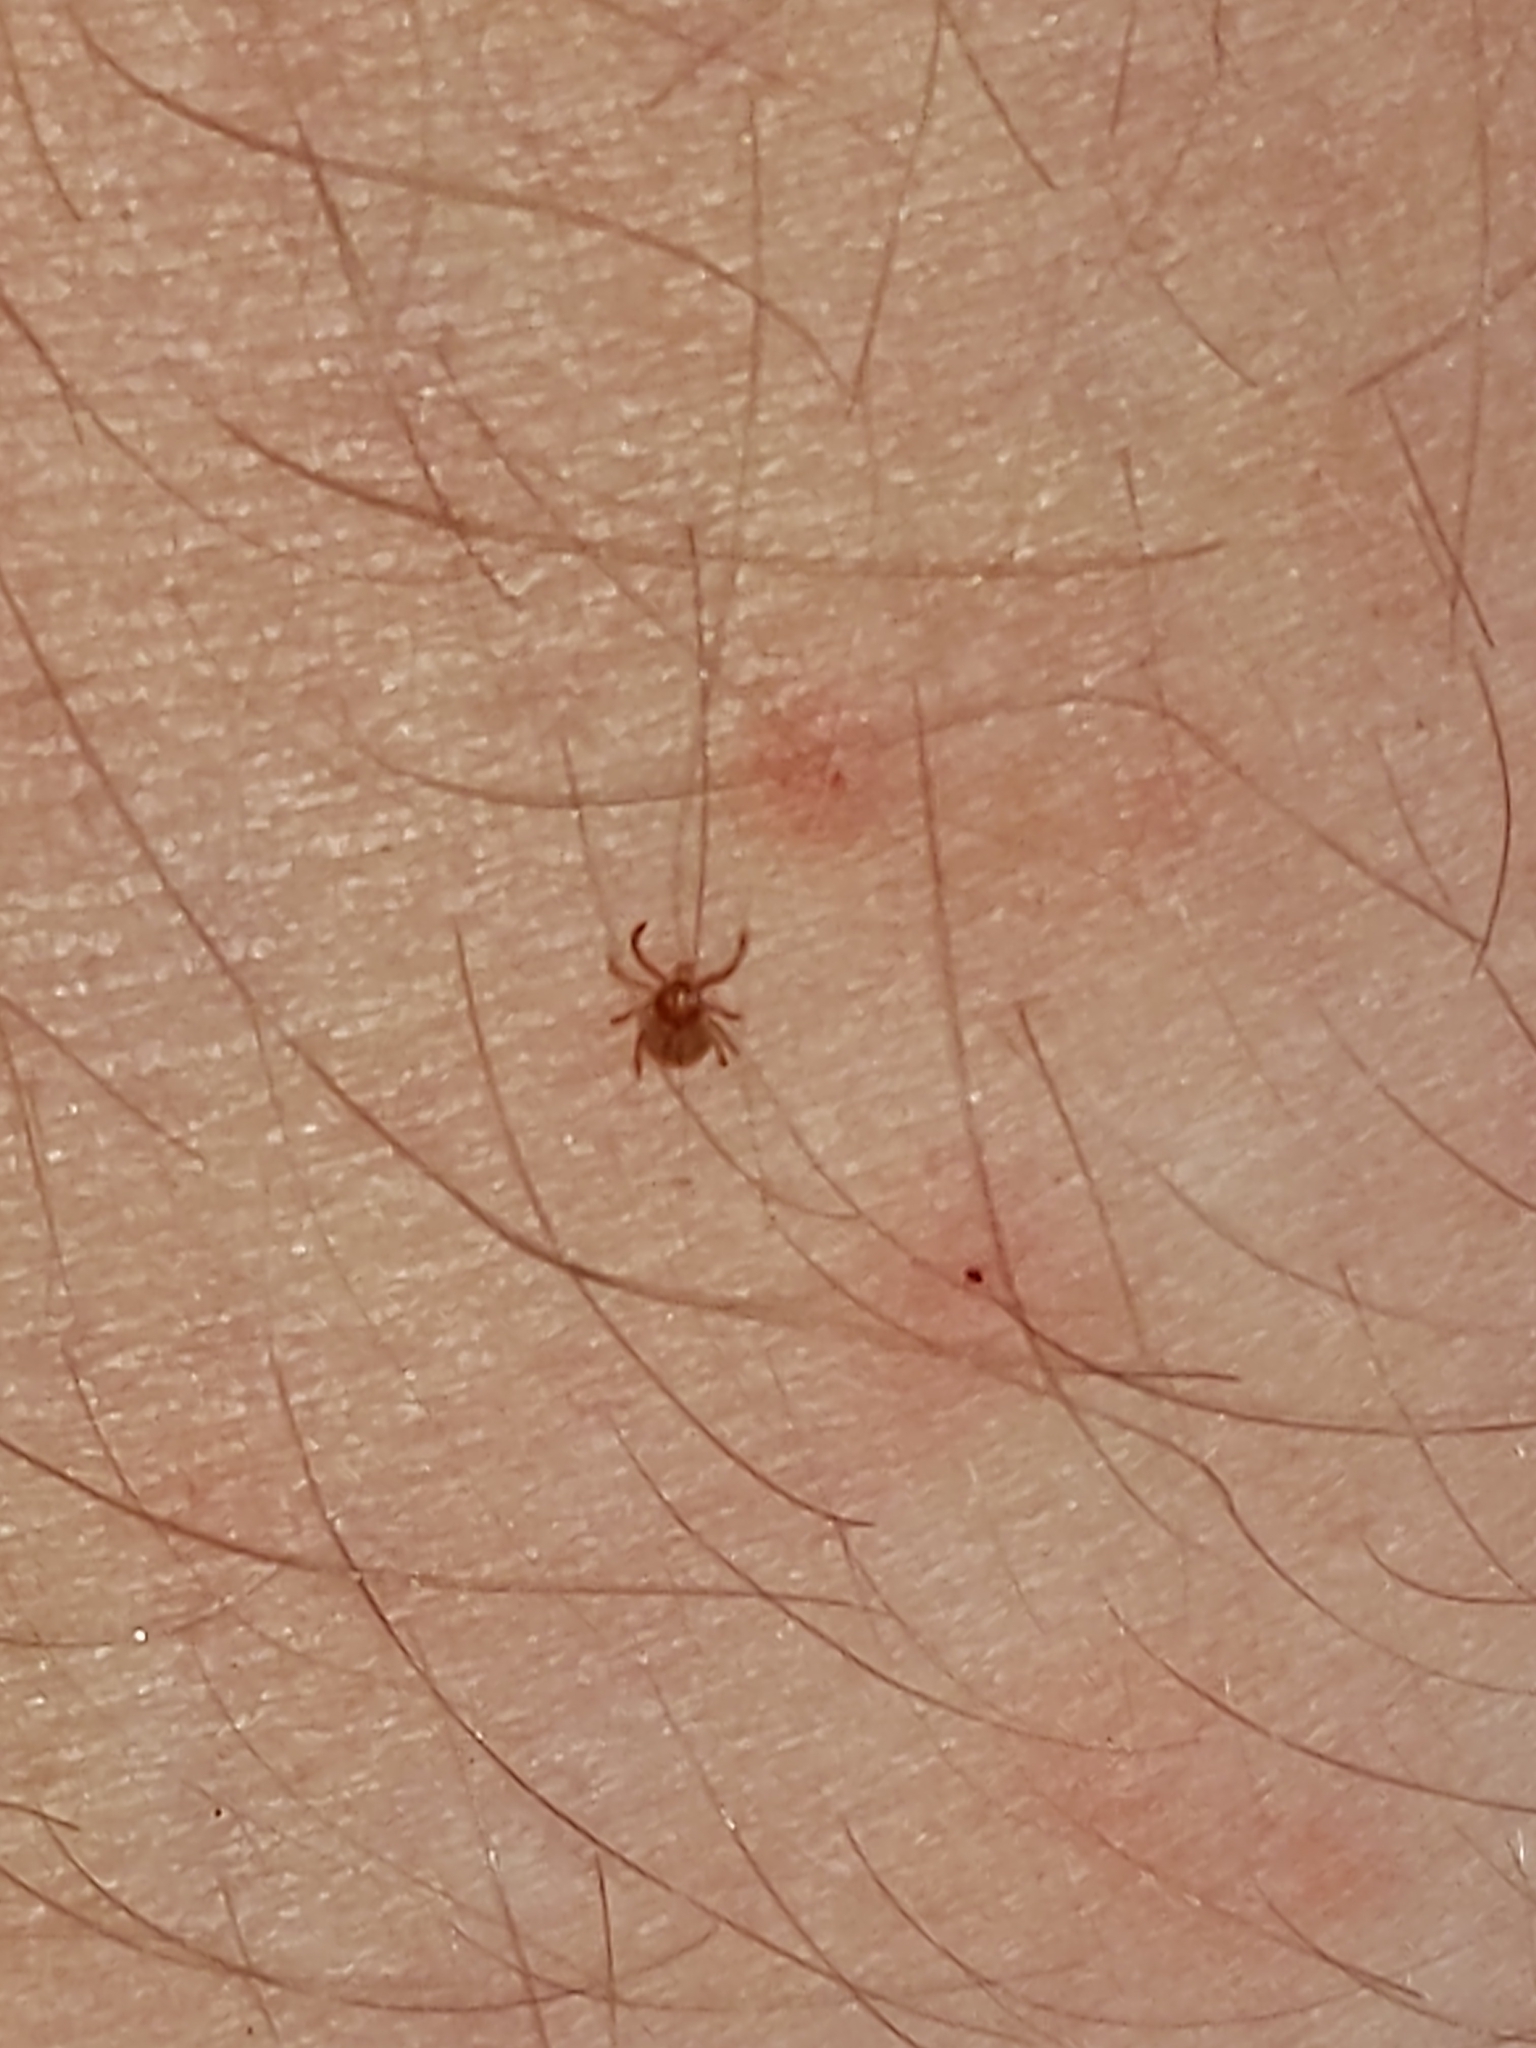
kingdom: Animalia
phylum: Arthropoda
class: Arachnida
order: Ixodida
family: Ixodidae
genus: Amblyomma
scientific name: Amblyomma americanum
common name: Lone star tick
